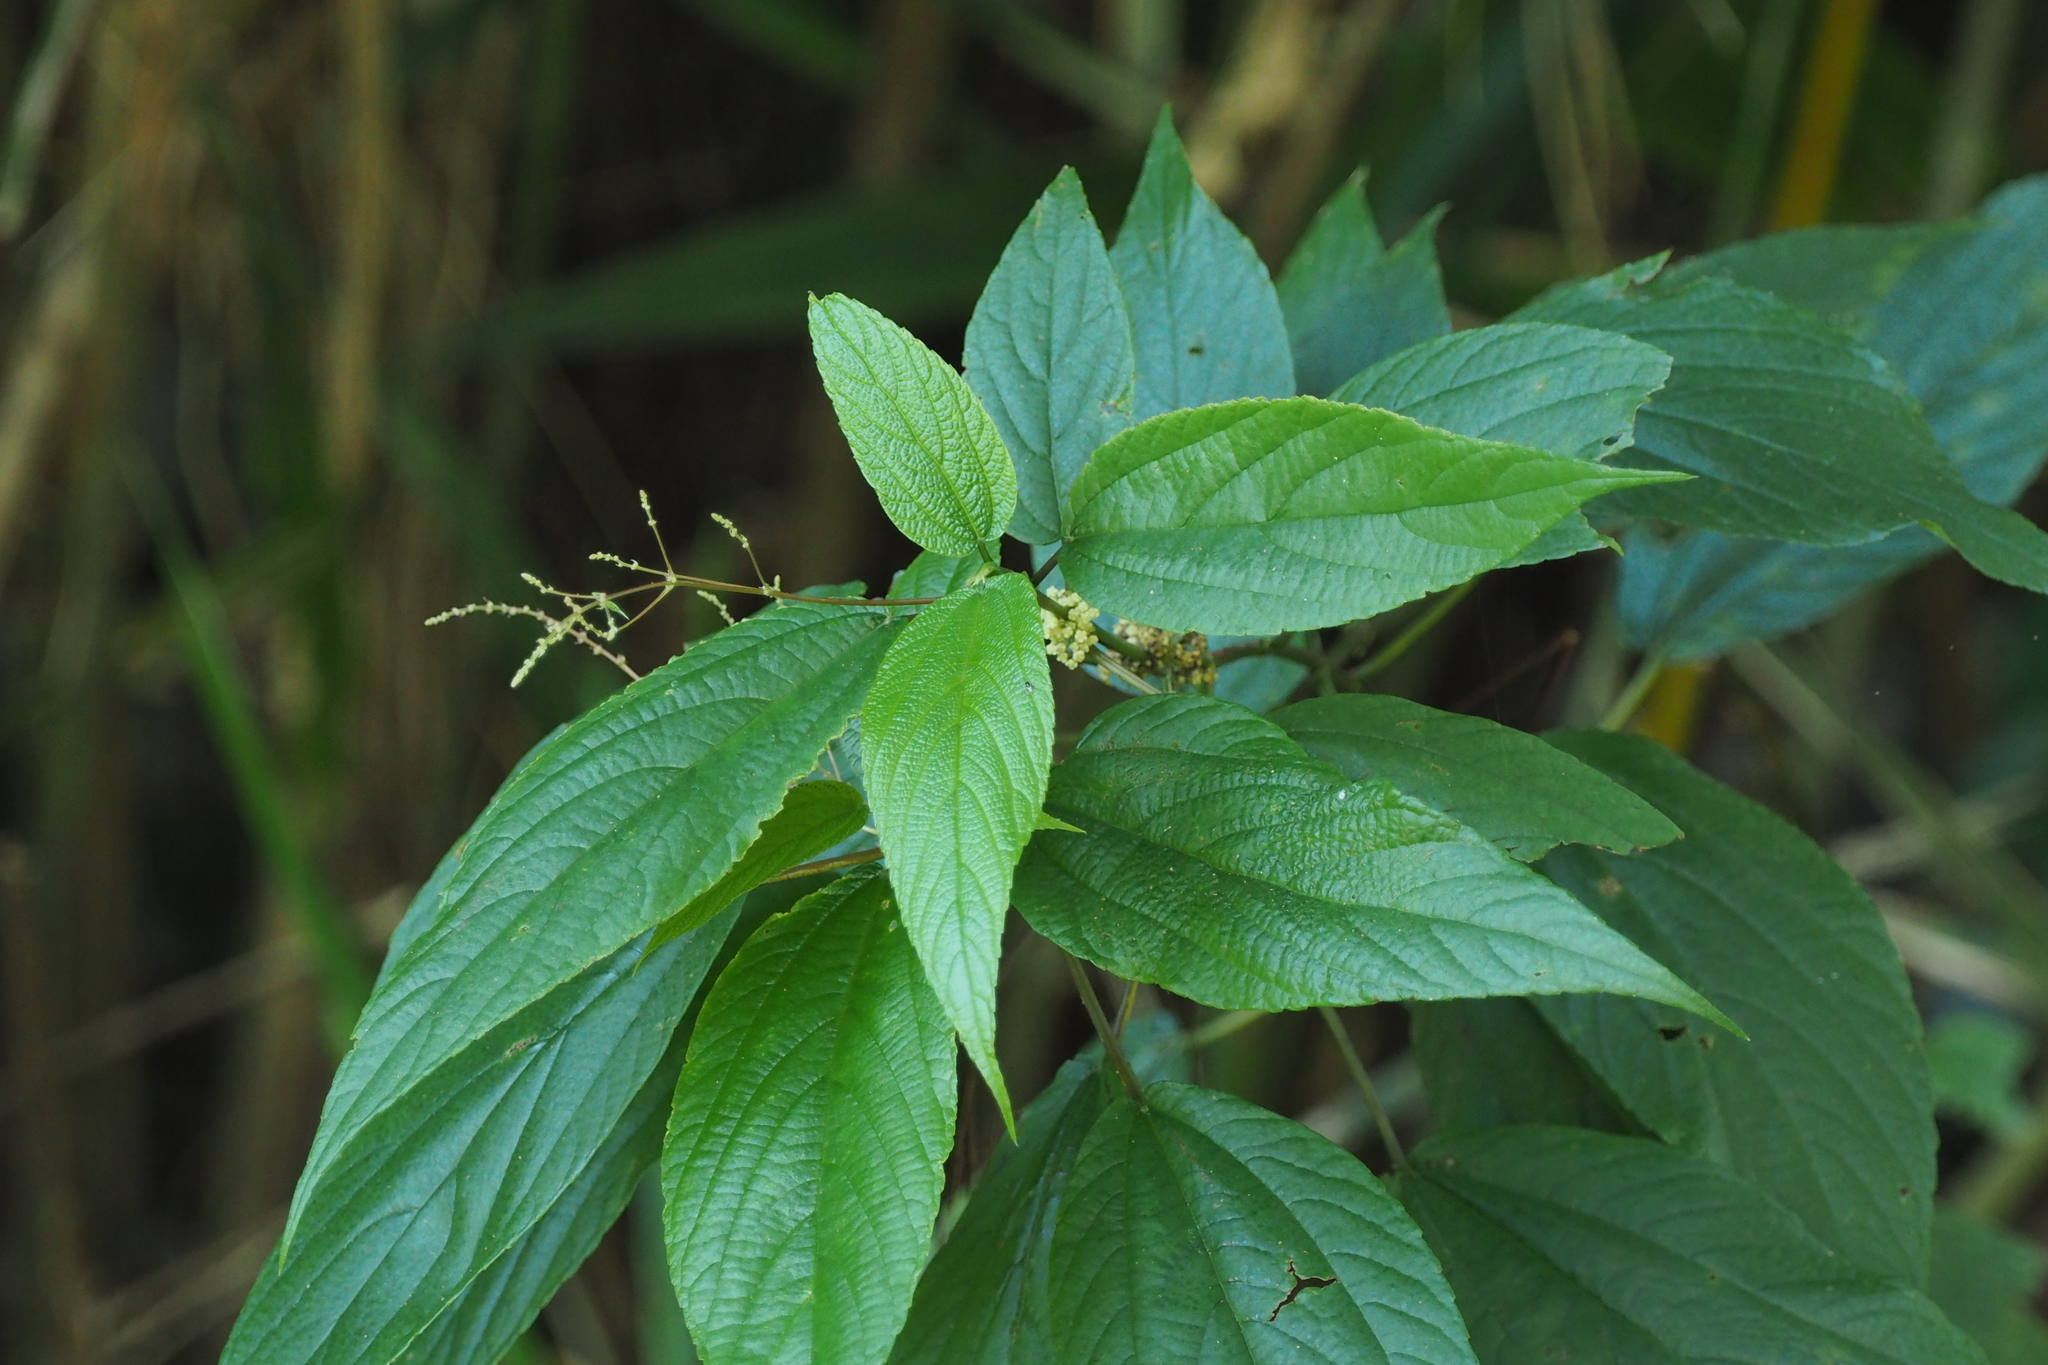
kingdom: Plantae
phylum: Tracheophyta
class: Magnoliopsida
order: Rosales
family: Urticaceae
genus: Boehmeria
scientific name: Boehmeria zollingeriana
